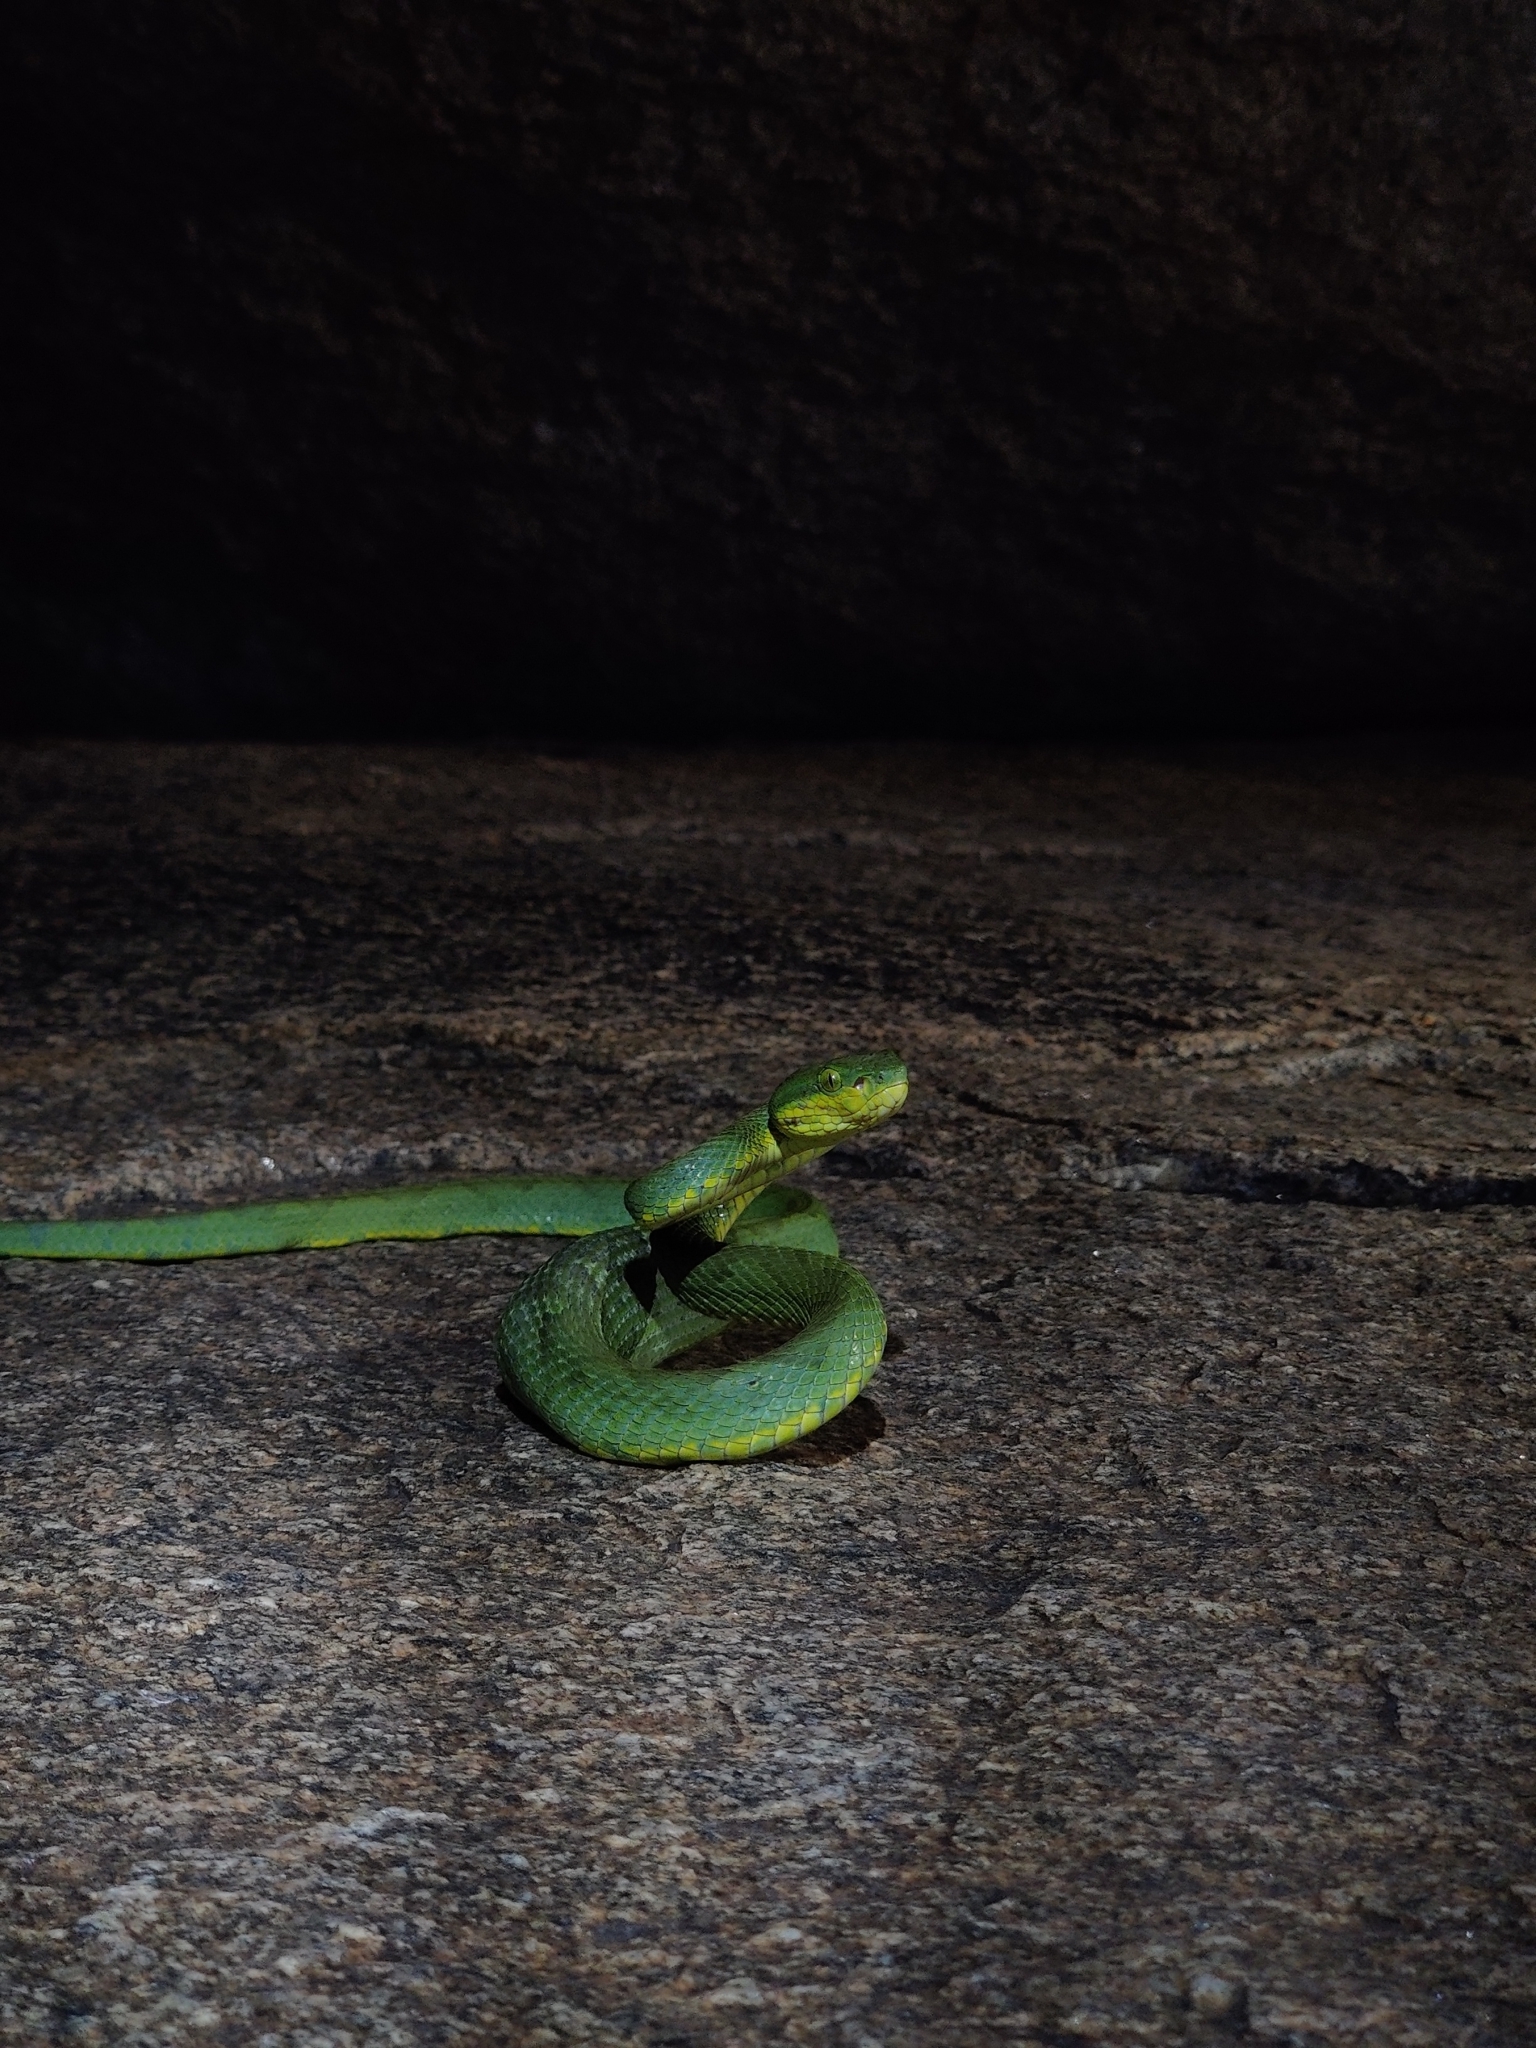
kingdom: Animalia
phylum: Chordata
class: Squamata
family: Viperidae
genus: Craspedocephalus
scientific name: Craspedocephalus gramineus
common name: Common bamboo viper
